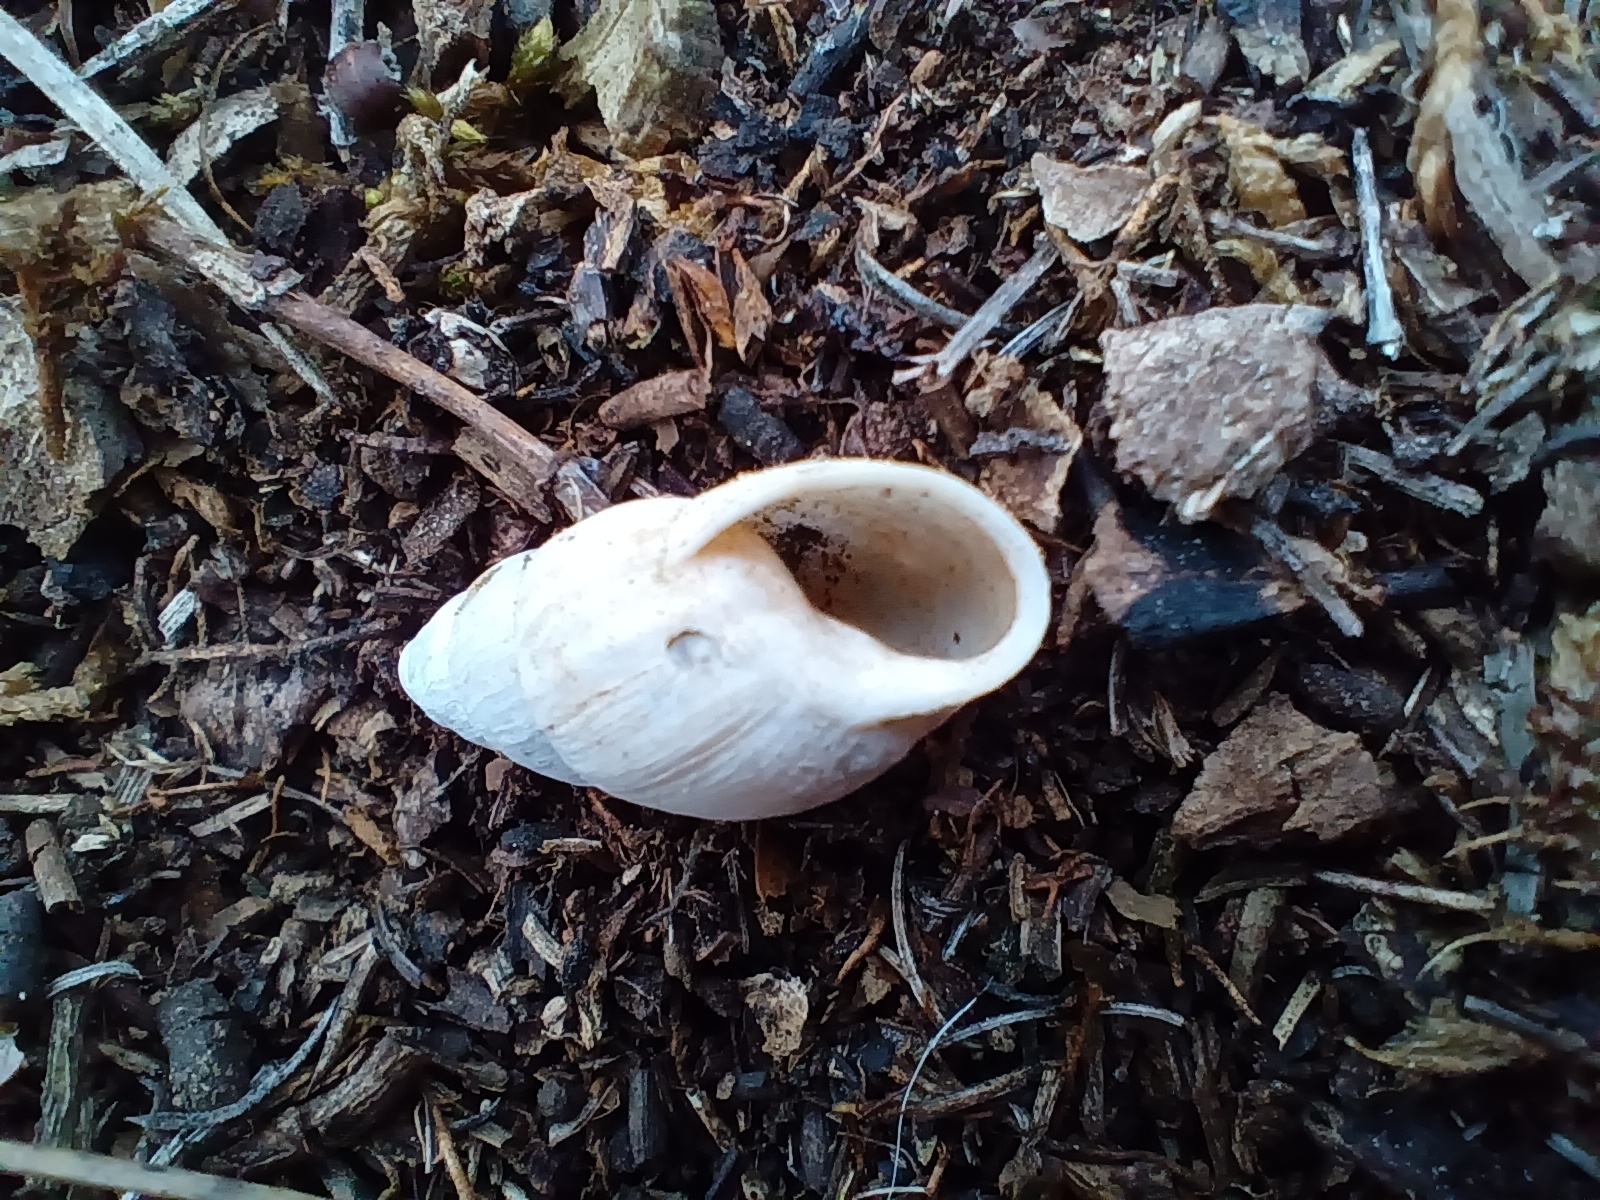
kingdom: Animalia
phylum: Mollusca
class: Gastropoda
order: Stylommatophora
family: Enidae
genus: Zebrina
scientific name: Zebrina detrita
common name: Large bulin
